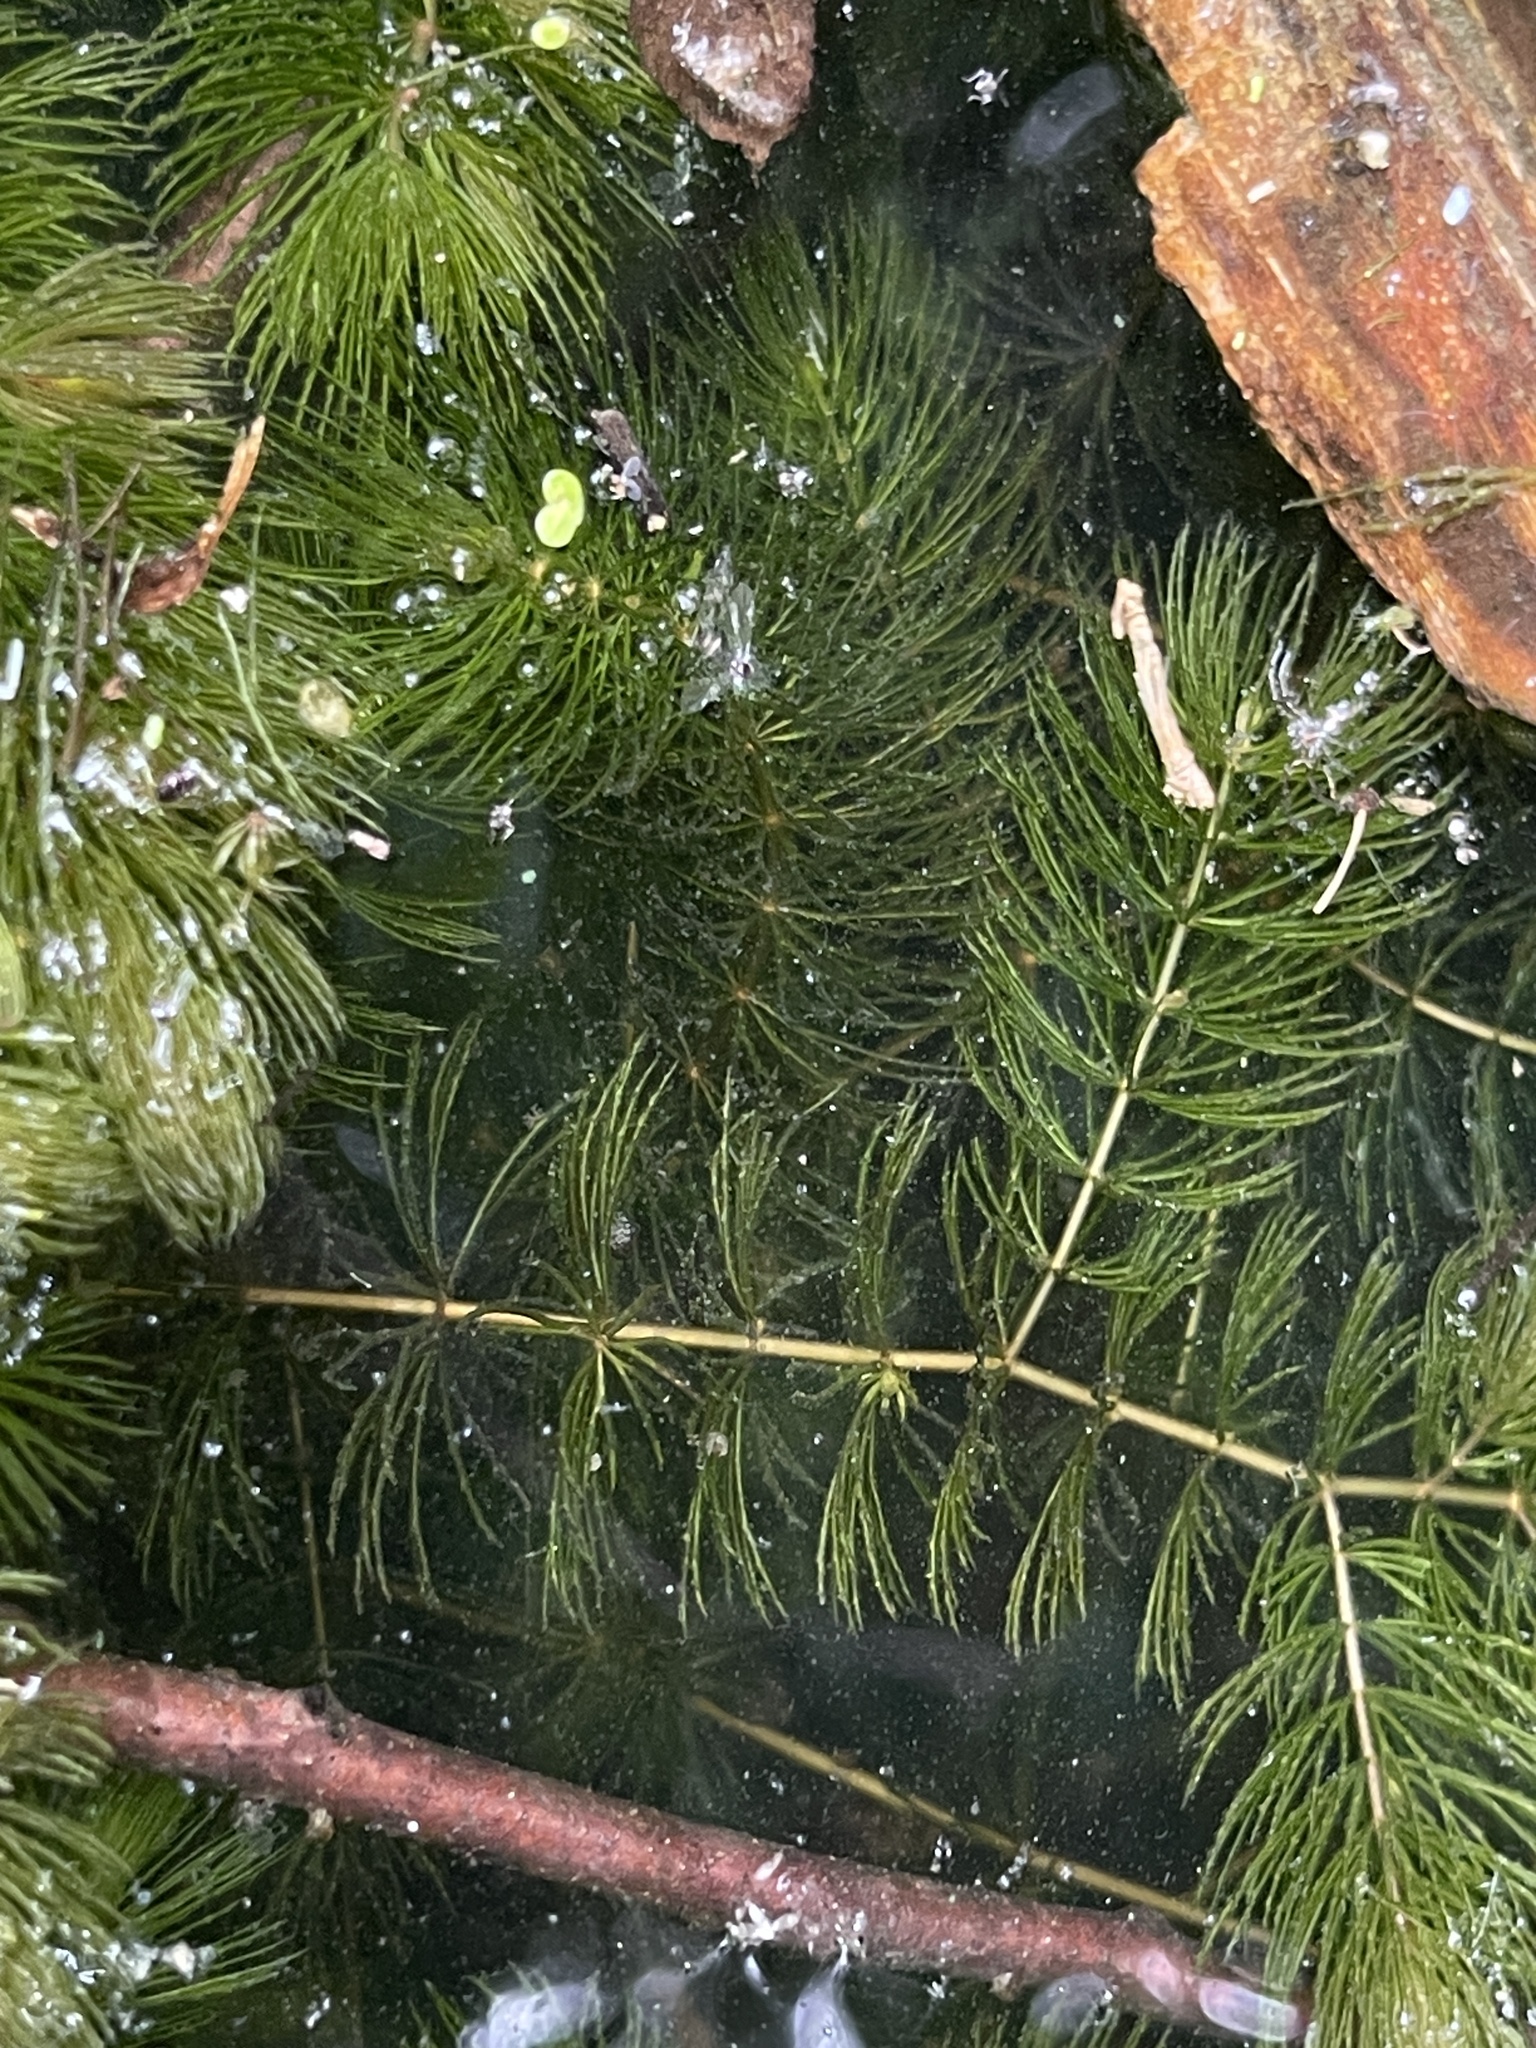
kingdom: Plantae
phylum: Tracheophyta
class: Magnoliopsida
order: Ceratophyllales
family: Ceratophyllaceae
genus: Ceratophyllum
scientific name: Ceratophyllum demersum
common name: Rigid hornwort
